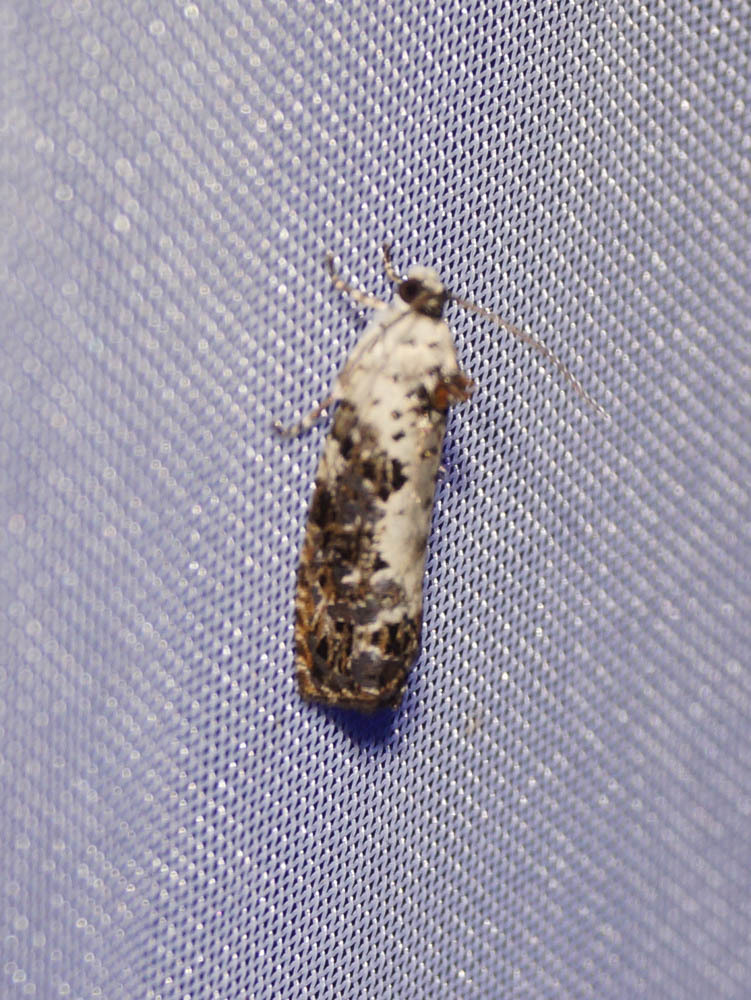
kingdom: Animalia
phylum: Arthropoda
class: Insecta
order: Lepidoptera
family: Tortricidae
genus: Hedya
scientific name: Hedya salicella
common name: Large tortricid moth
